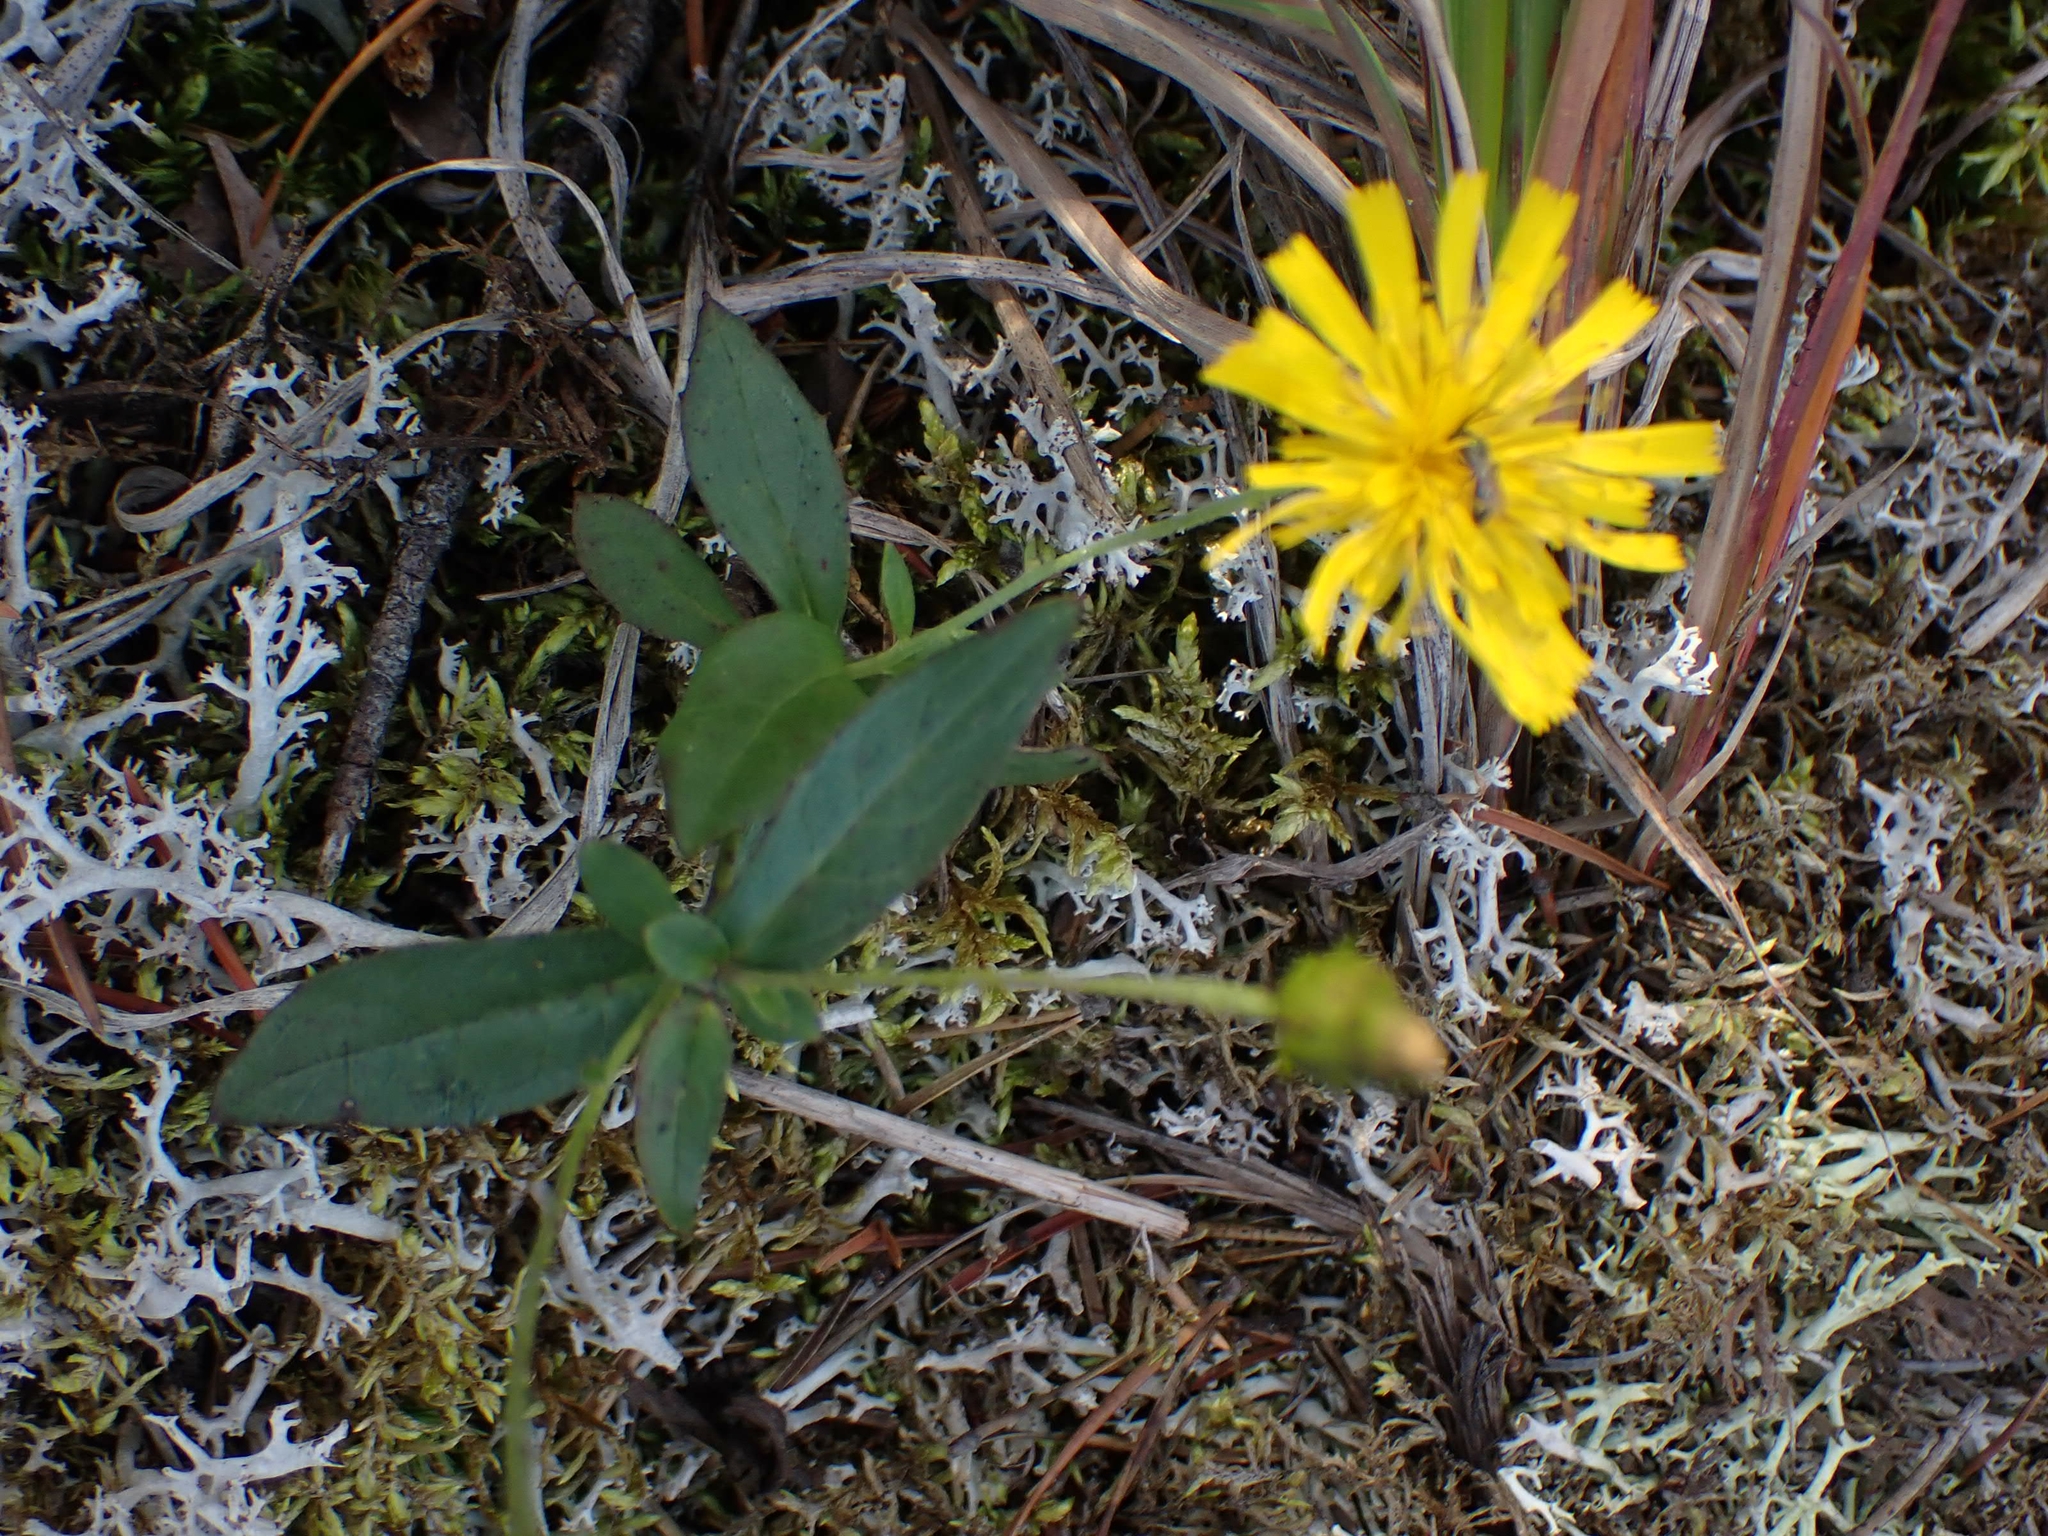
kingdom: Plantae
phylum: Tracheophyta
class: Magnoliopsida
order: Asterales
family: Asteraceae
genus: Hieracium
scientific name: Hieracium umbellatum
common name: Northern hawkweed
